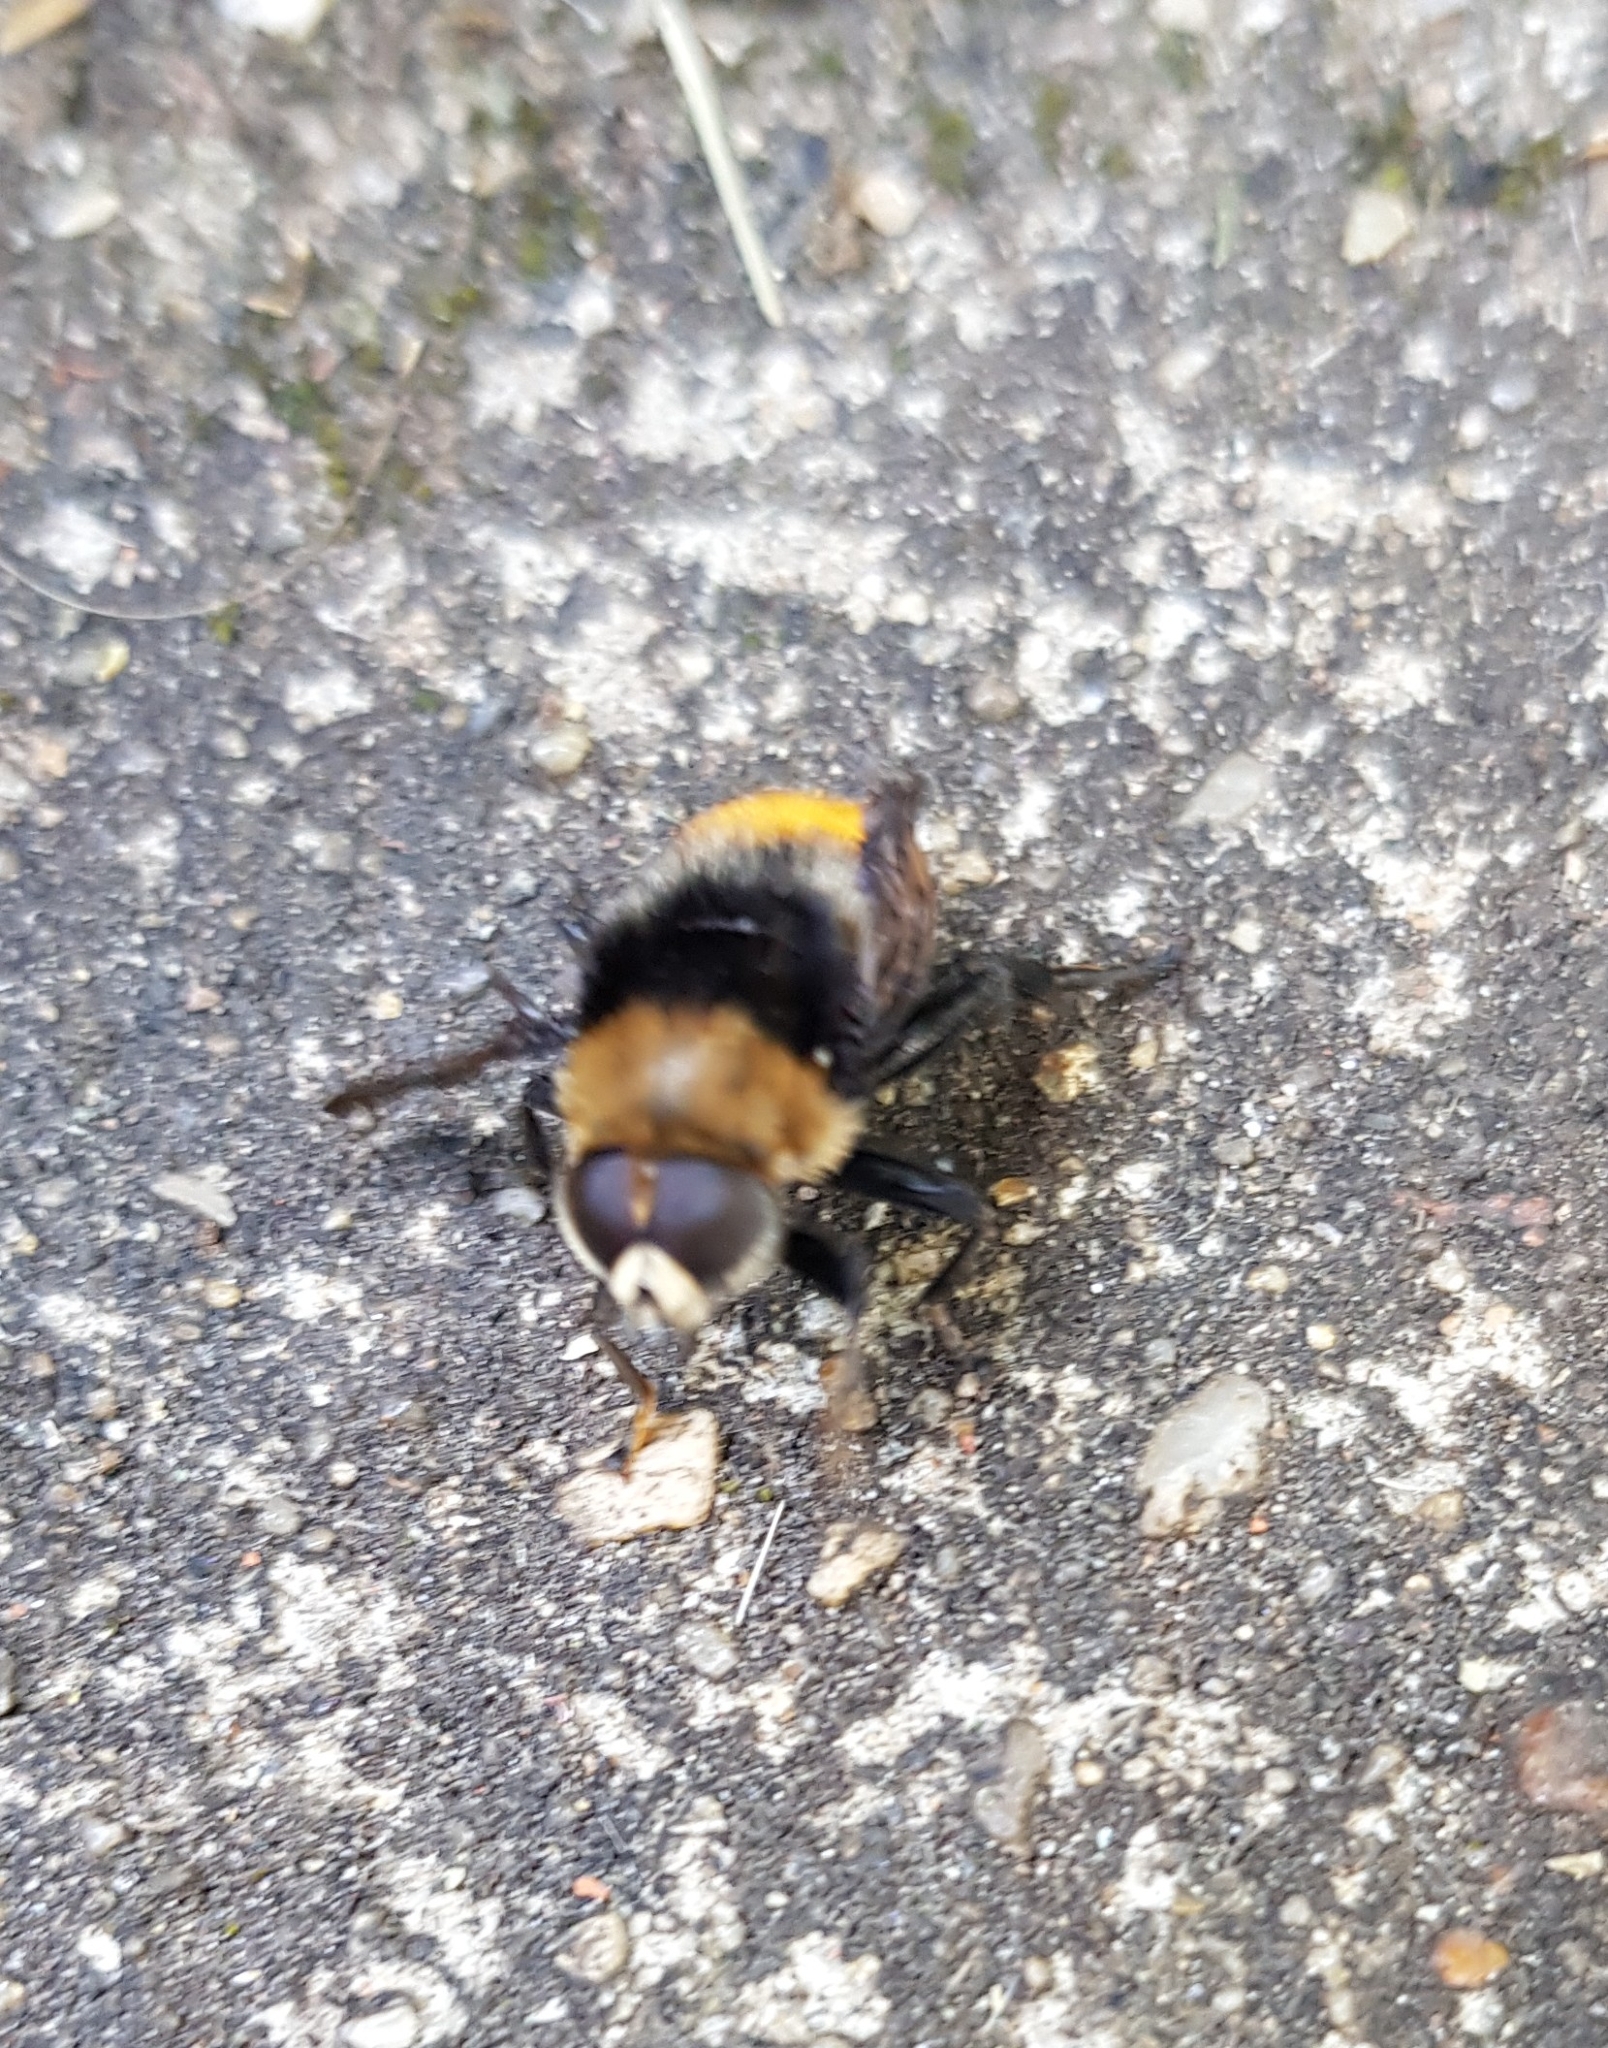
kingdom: Animalia
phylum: Arthropoda
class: Insecta
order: Diptera
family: Syrphidae
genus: Merodon
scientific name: Merodon equestris
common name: Greater bulb-fly
